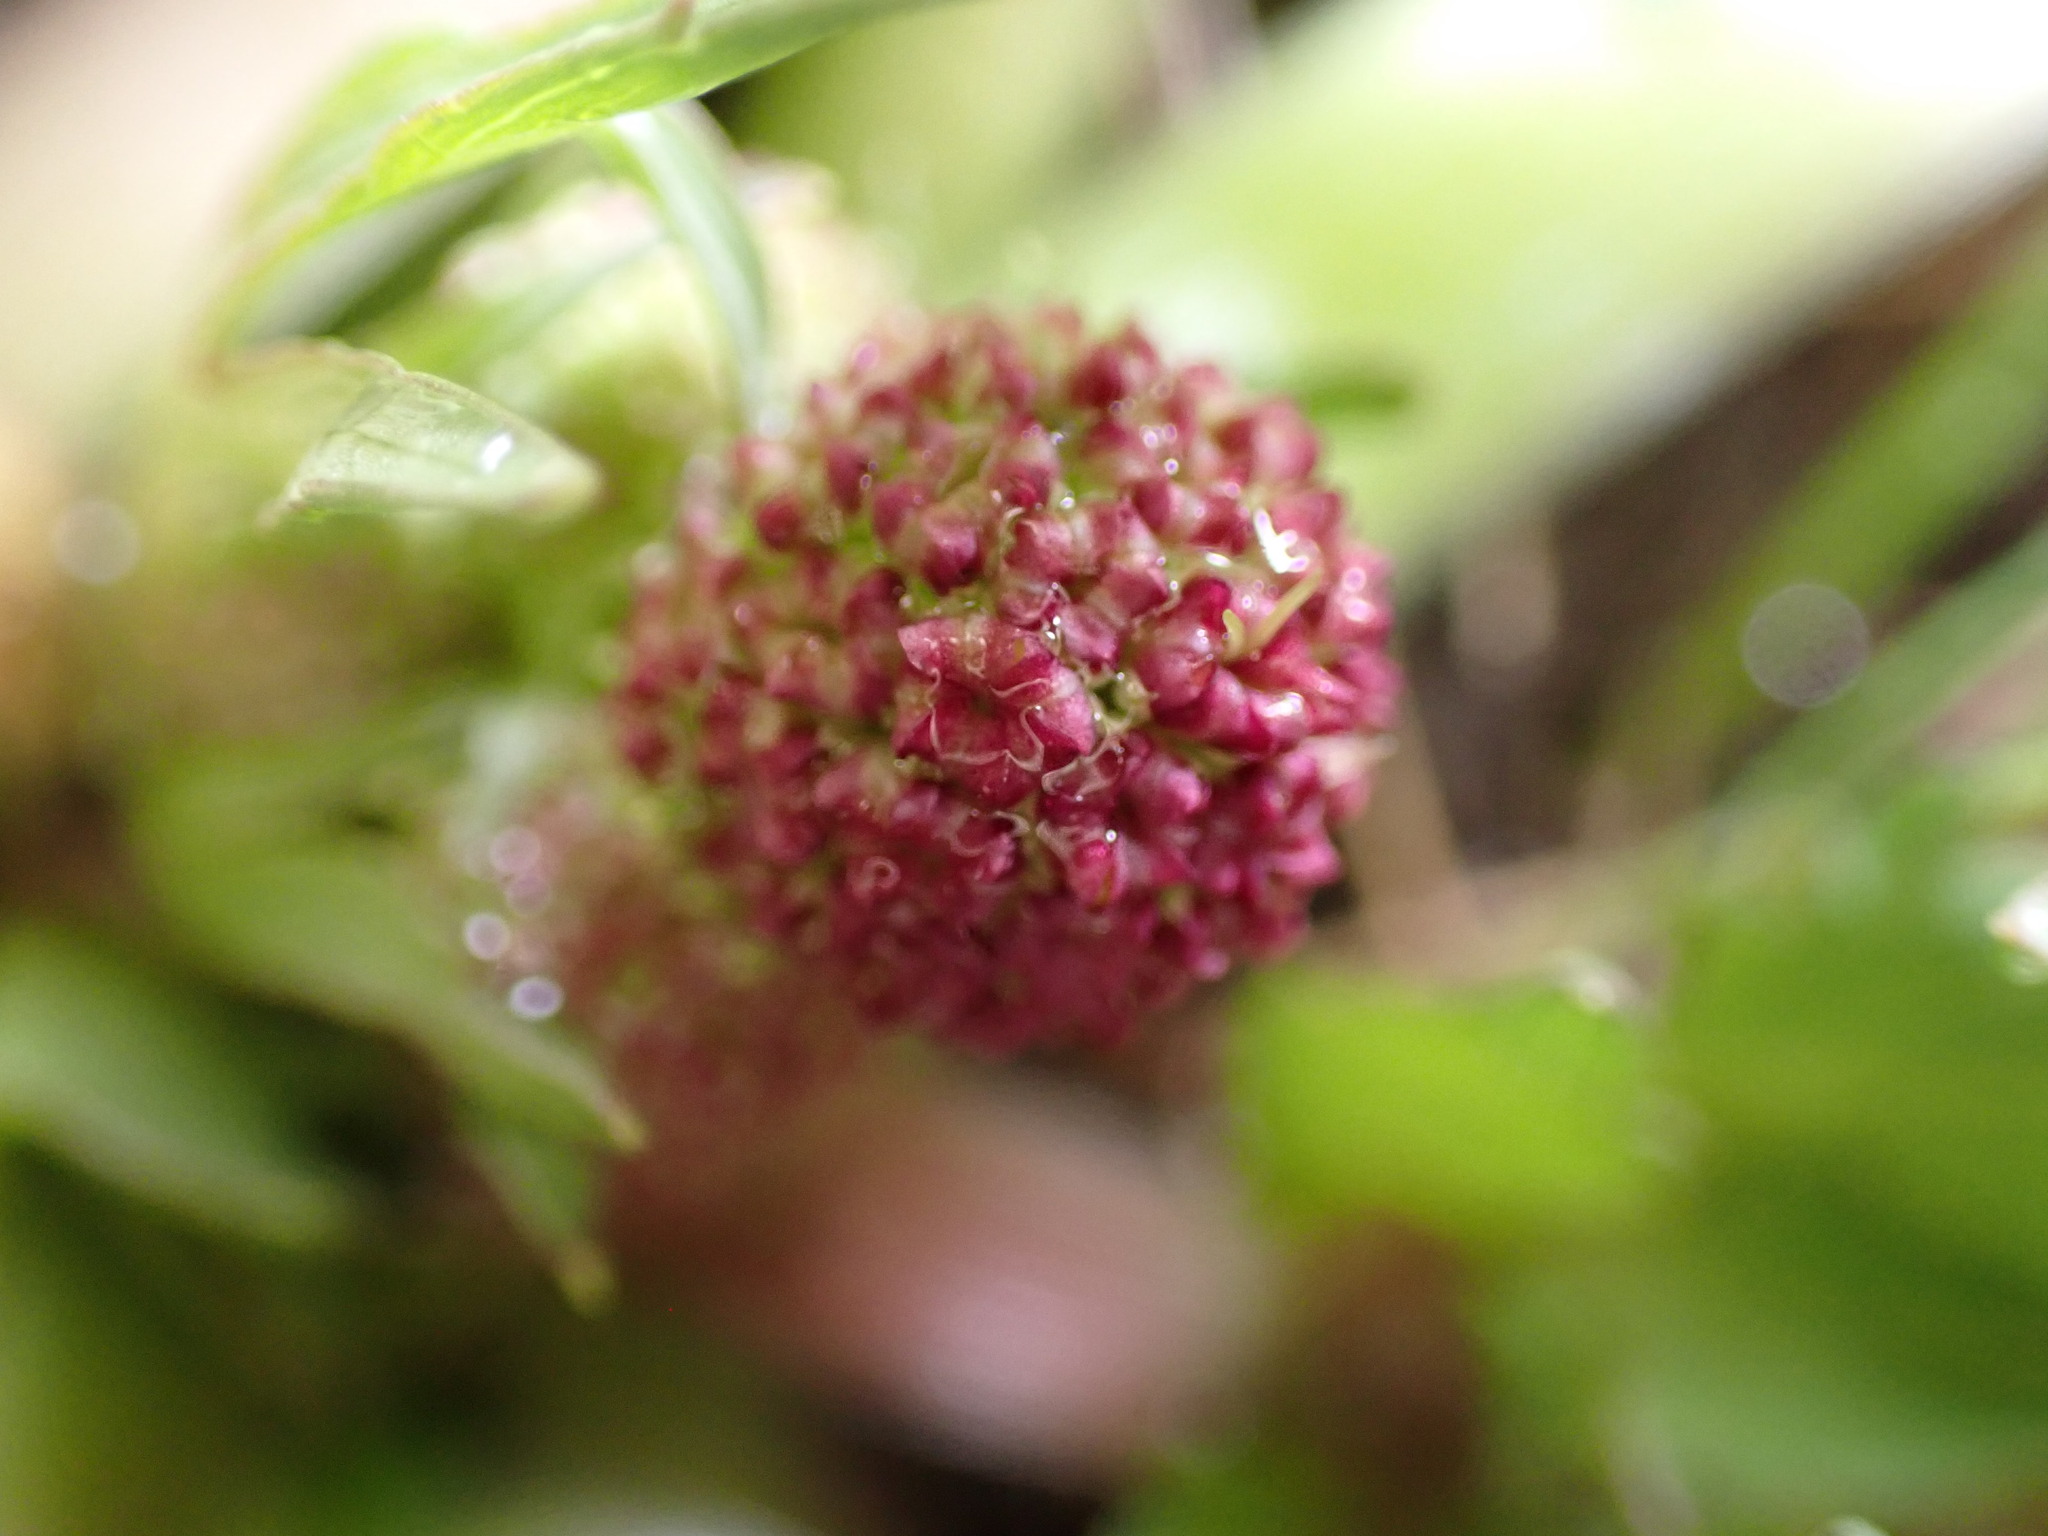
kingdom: Plantae
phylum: Tracheophyta
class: Magnoliopsida
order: Apiales
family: Apiaceae
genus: Sanicula
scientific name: Sanicula bipinnatifida
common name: Shoe-buttons
